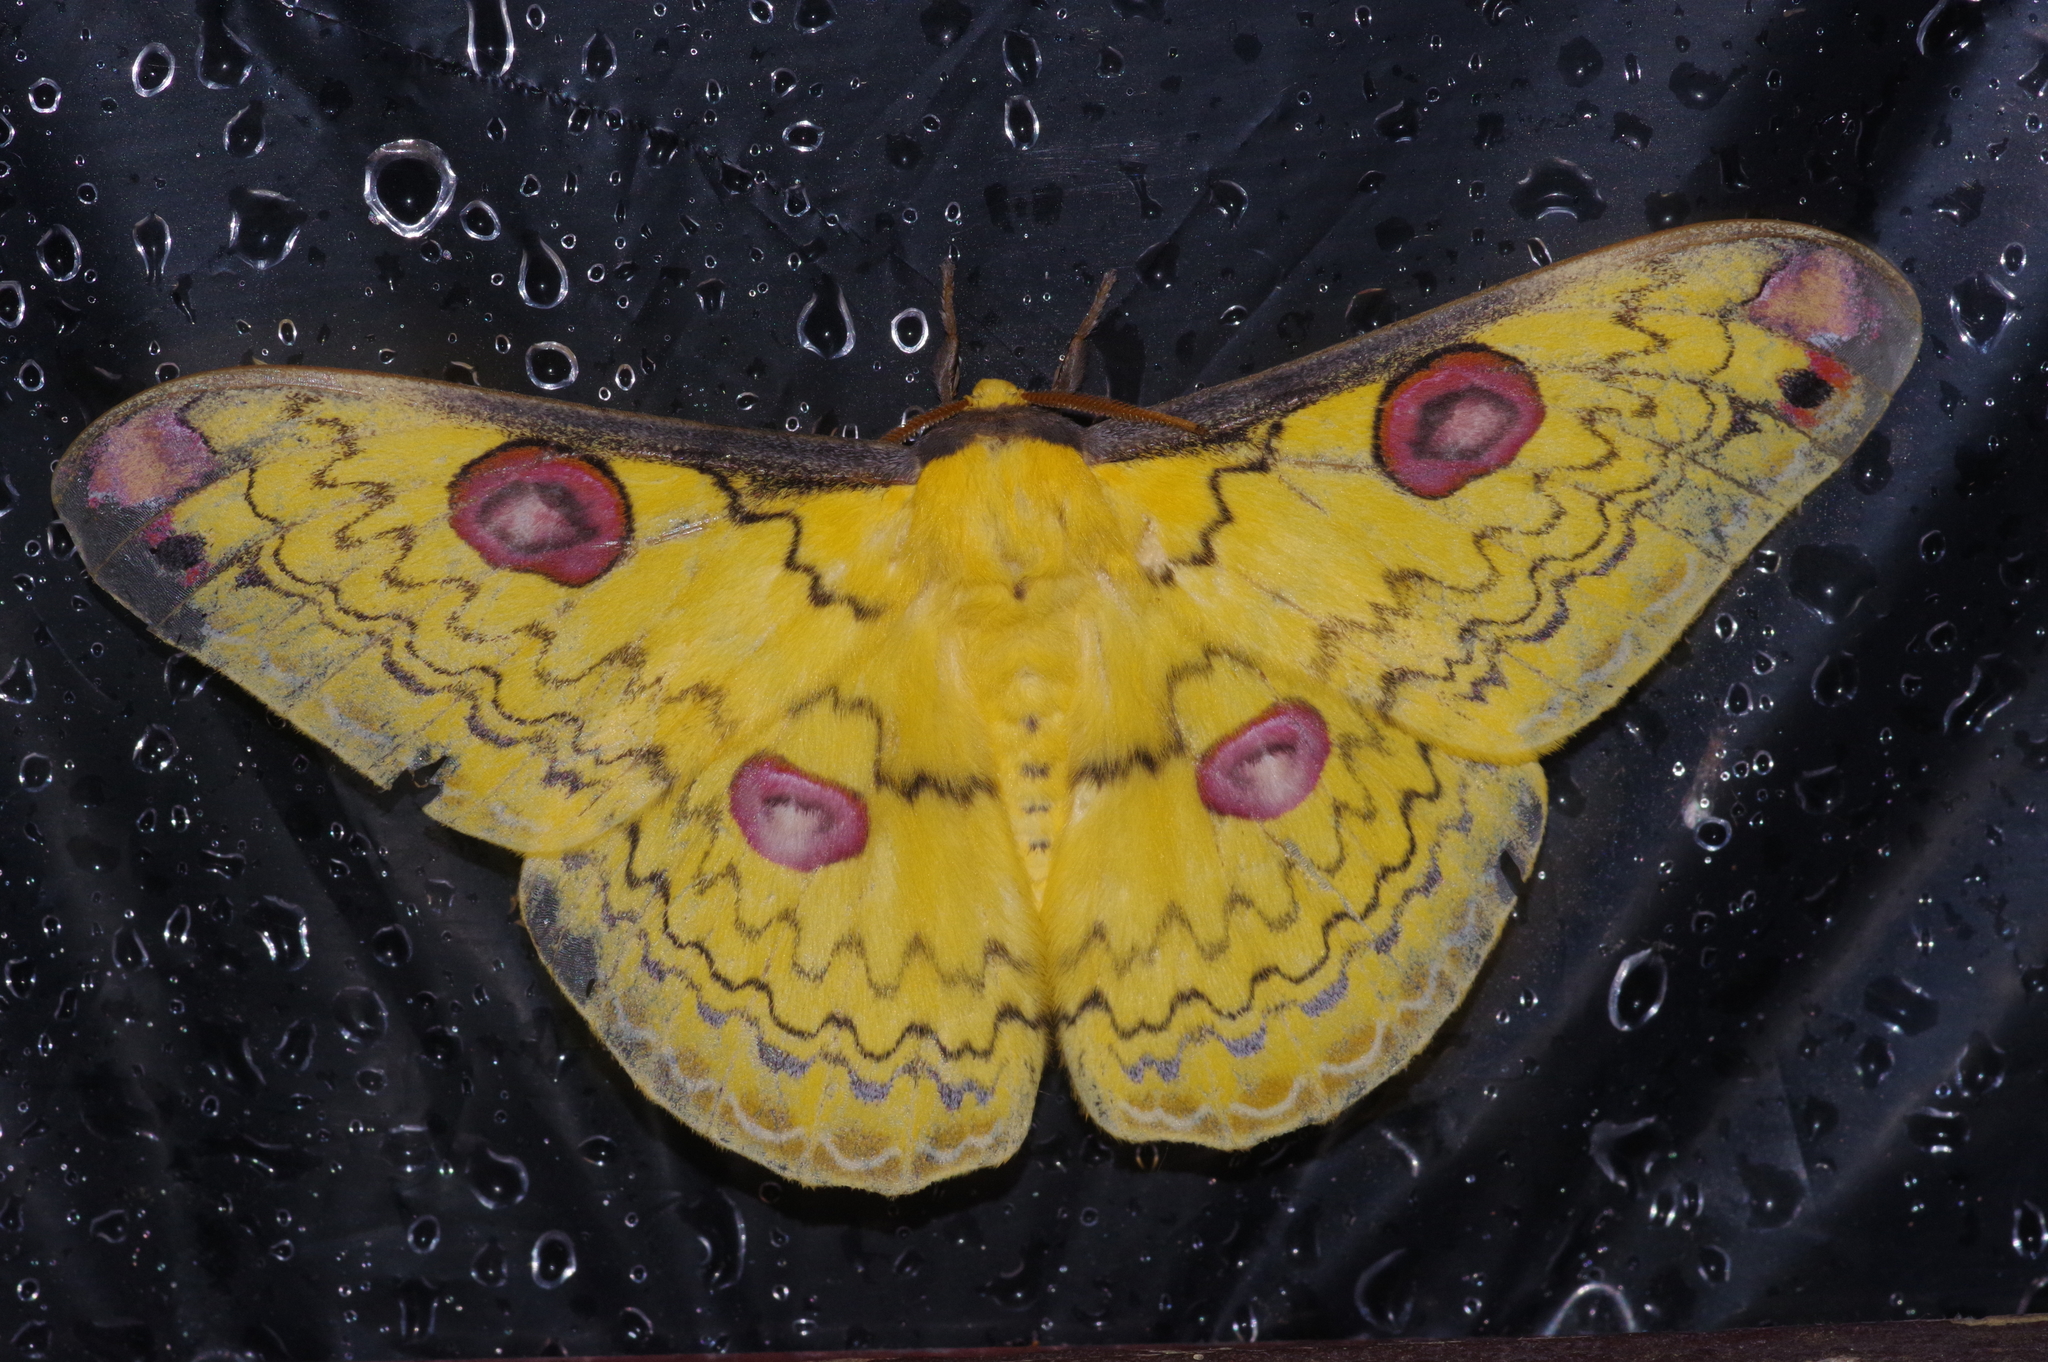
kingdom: Animalia
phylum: Arthropoda
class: Insecta
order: Lepidoptera
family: Saturniidae
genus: Loepa
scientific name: Loepa sakaei
